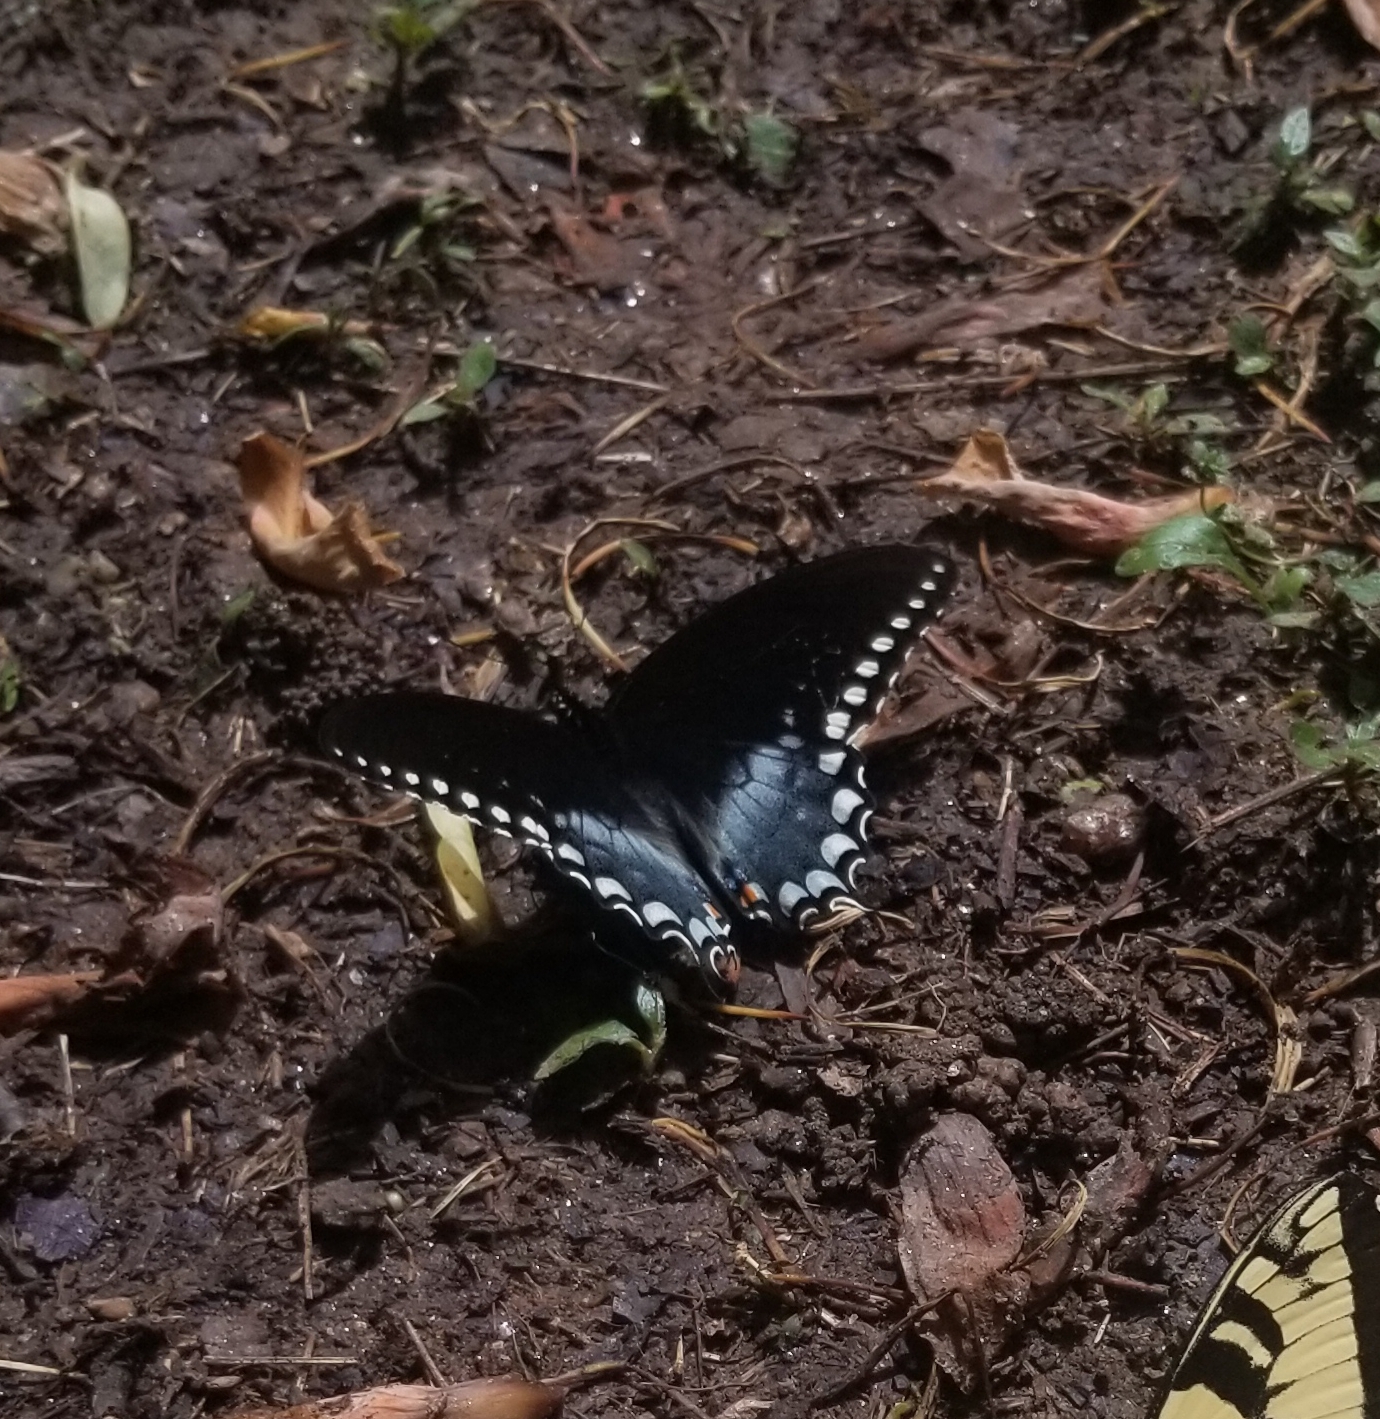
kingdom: Animalia
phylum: Arthropoda
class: Insecta
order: Lepidoptera
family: Papilionidae
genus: Papilio
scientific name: Papilio troilus
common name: Spicebush swallowtail
